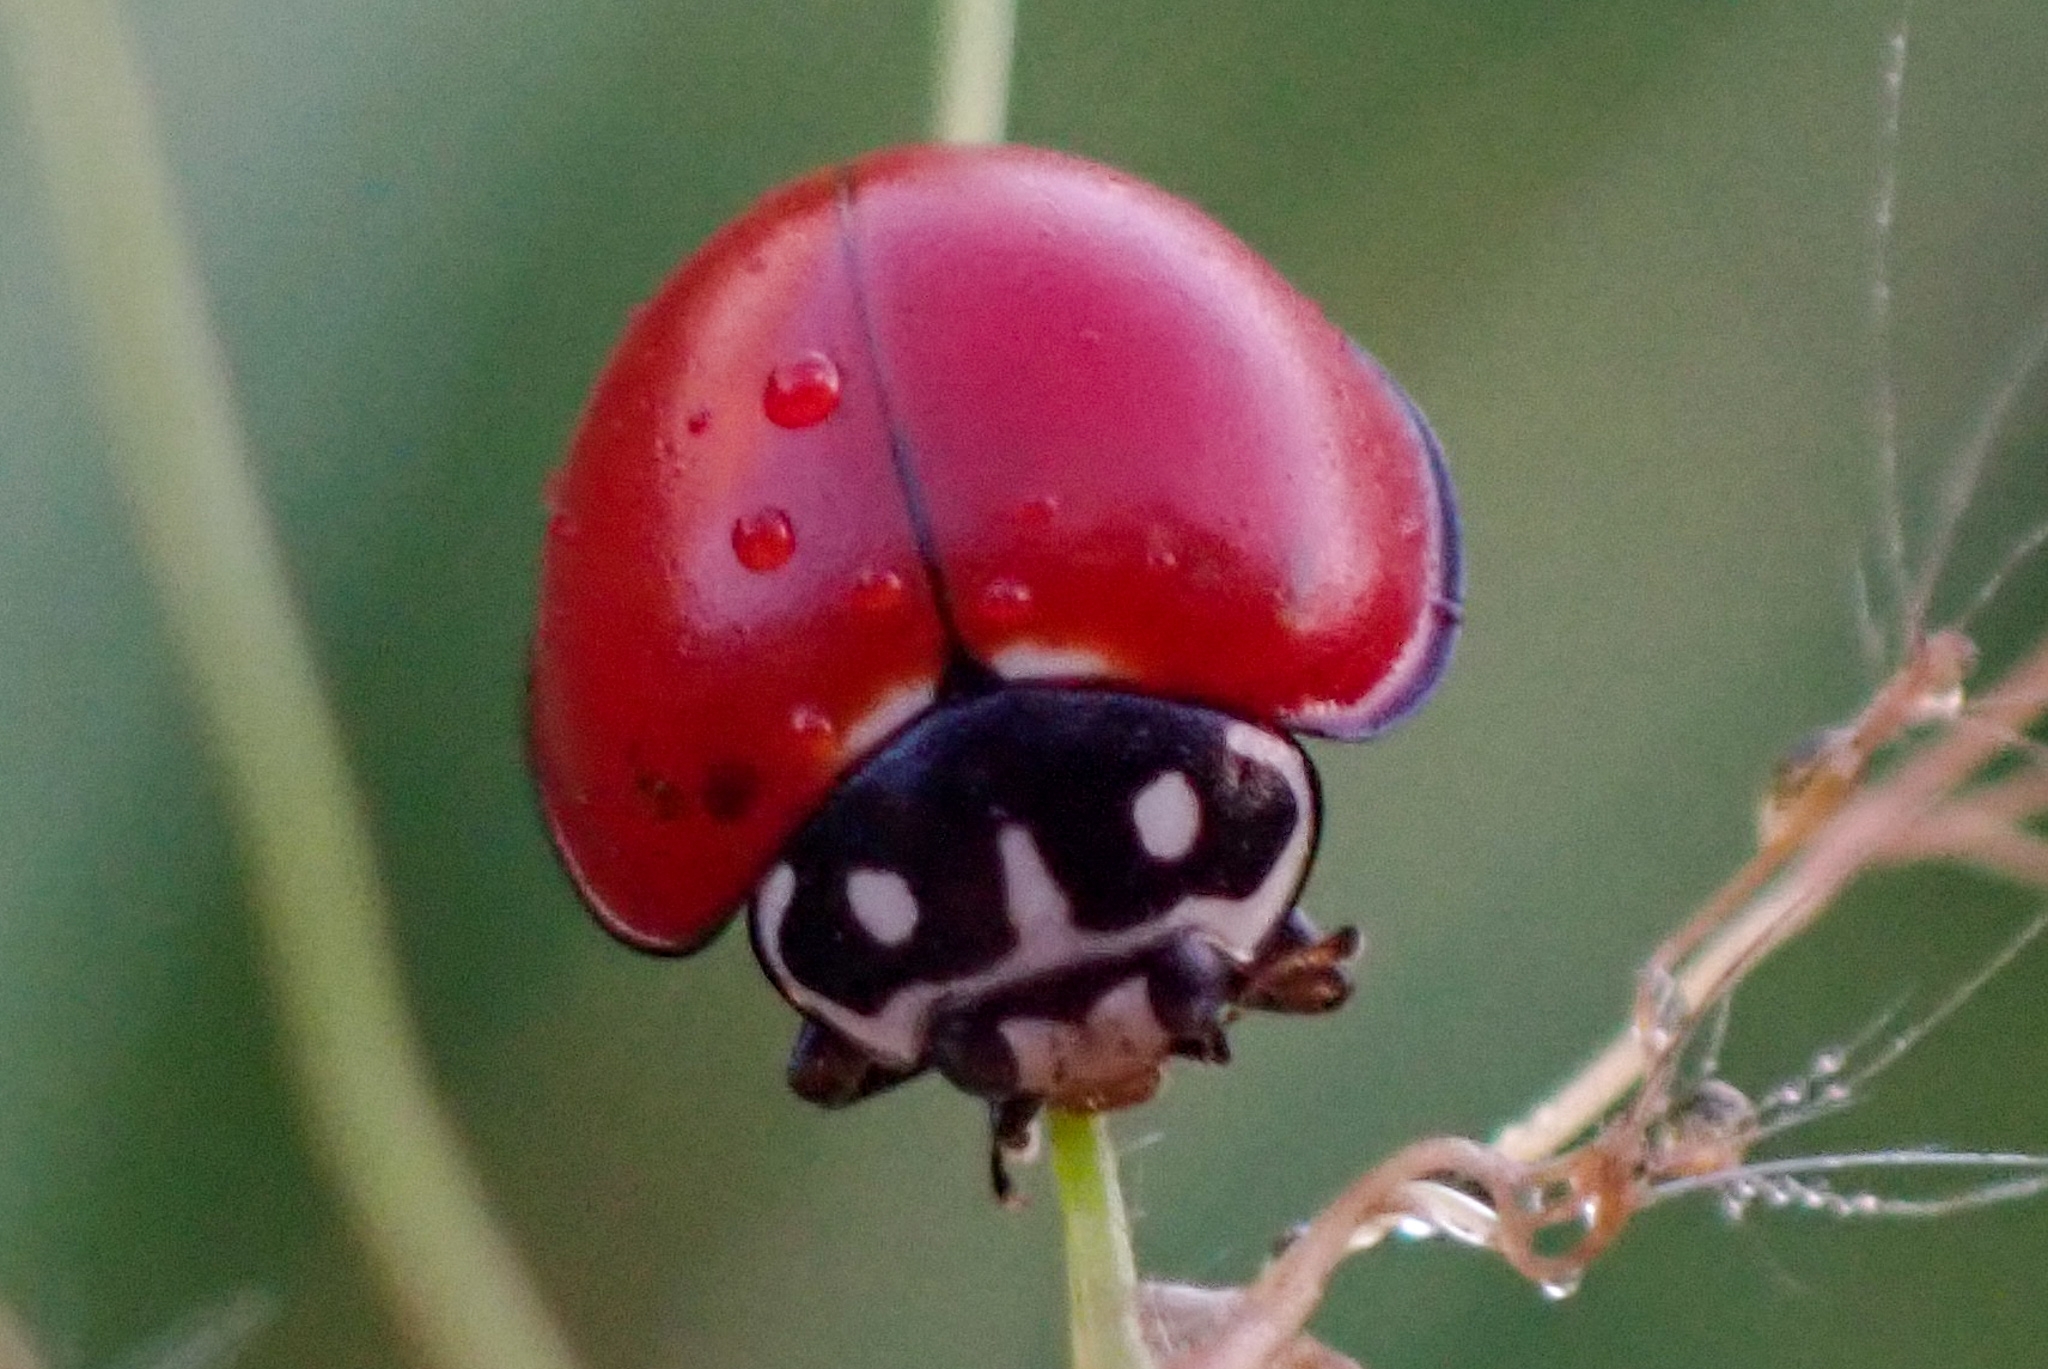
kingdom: Animalia
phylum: Arthropoda
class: Insecta
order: Coleoptera
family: Coccinellidae
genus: Cycloneda
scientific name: Cycloneda sanguinea
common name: Ladybird beetle
